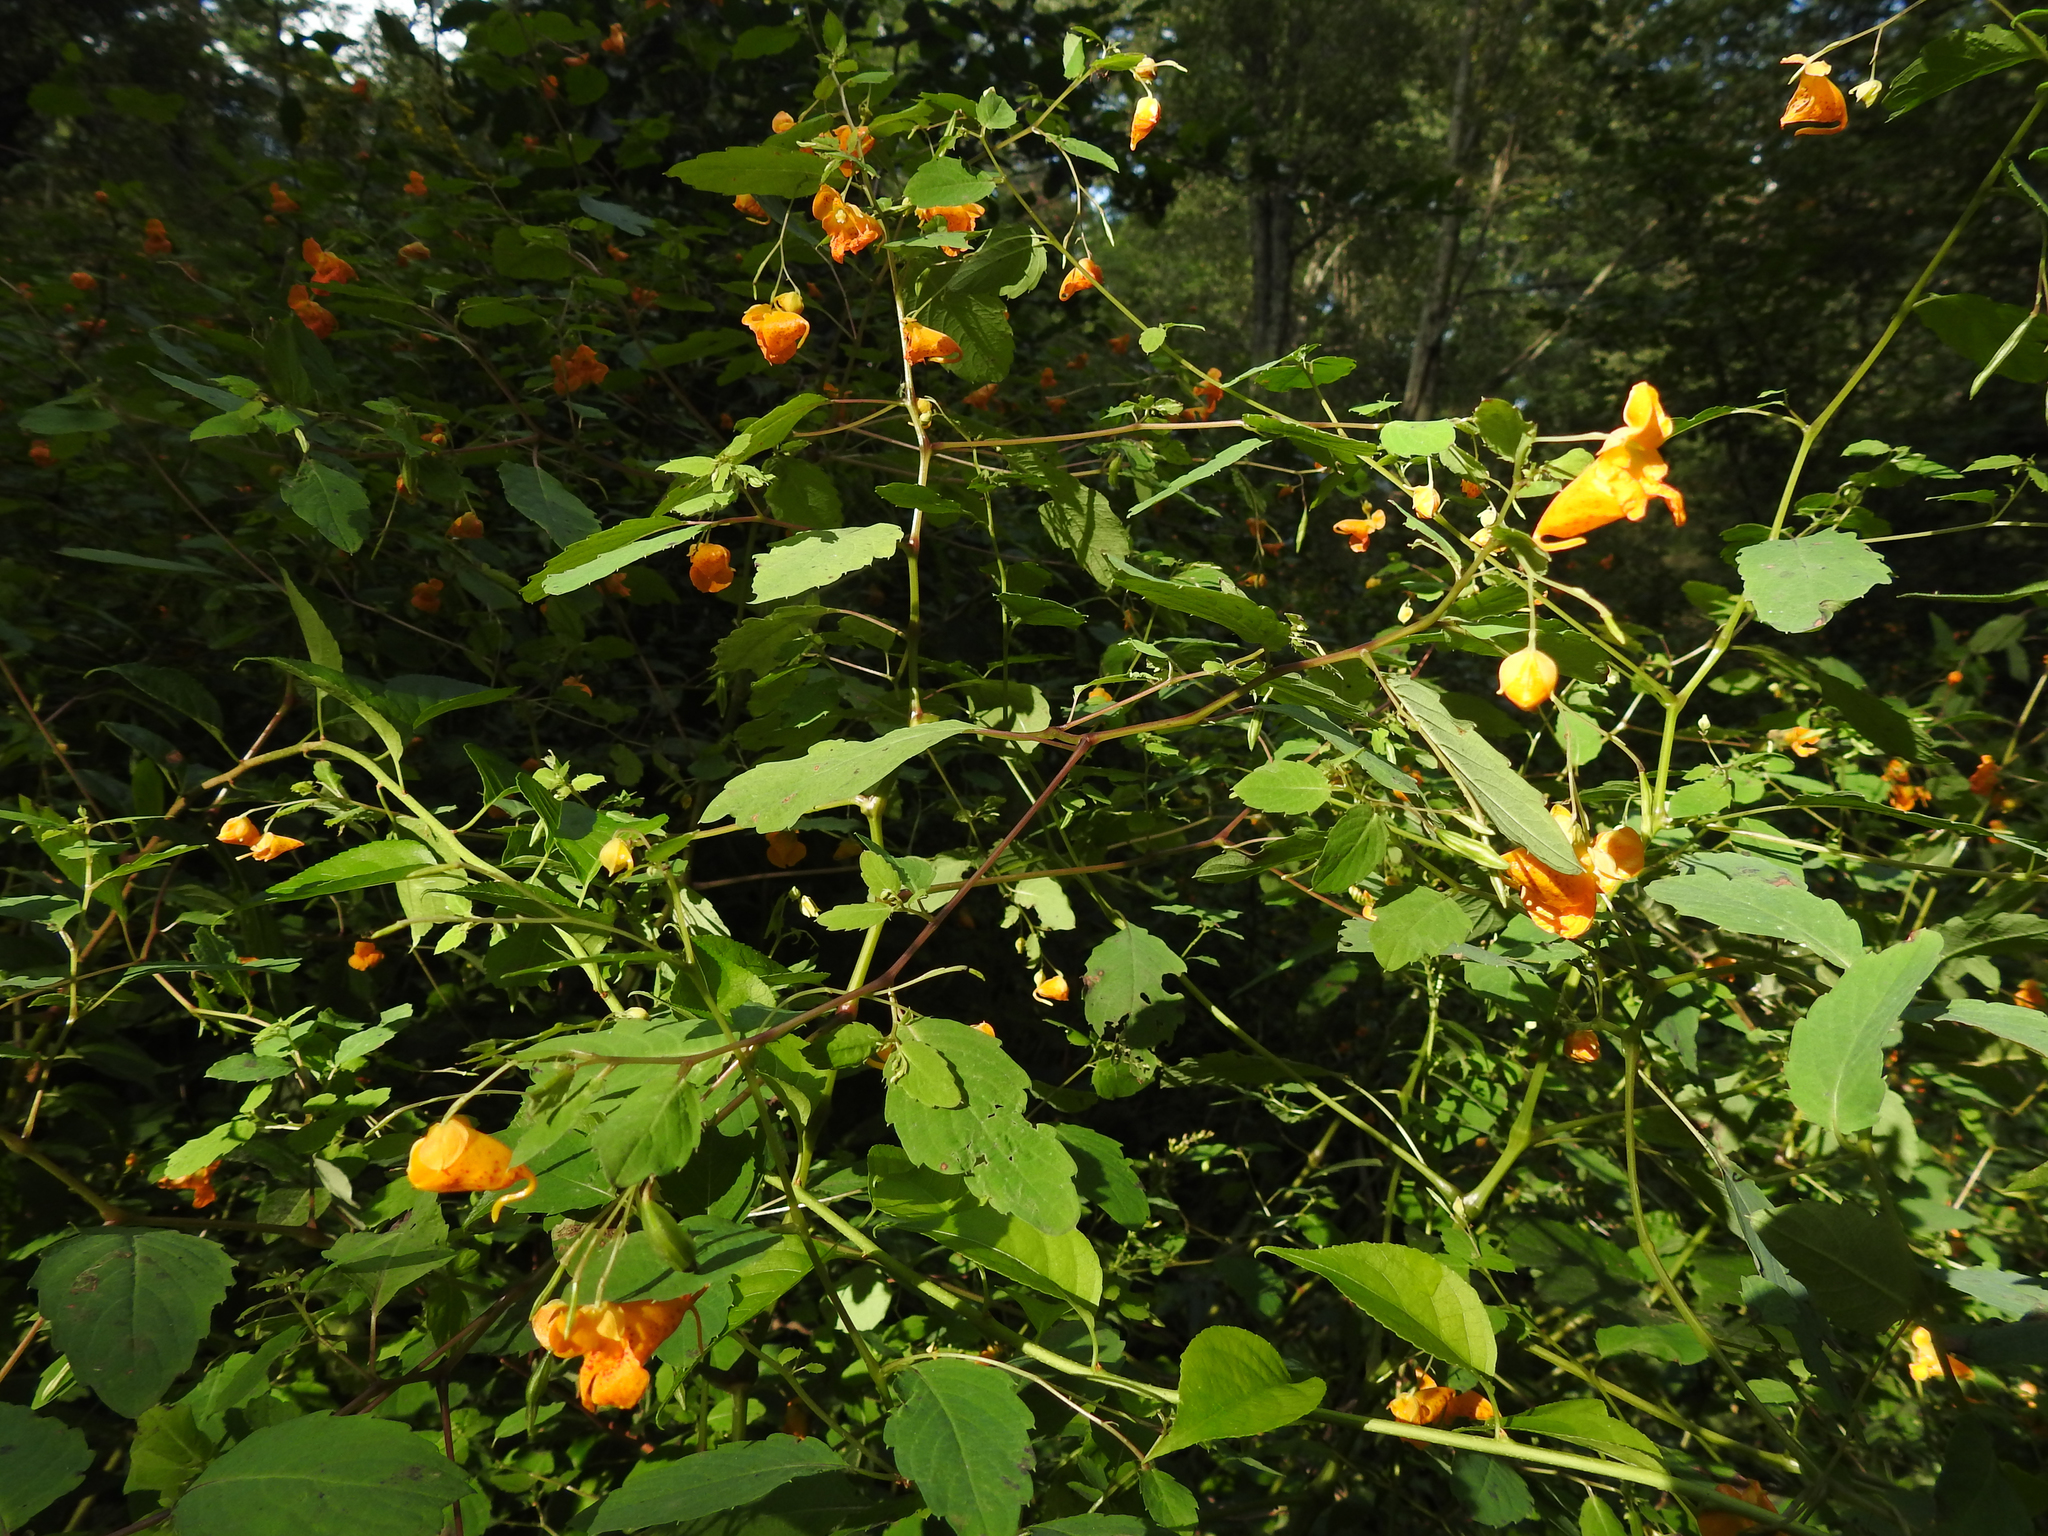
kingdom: Plantae
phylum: Tracheophyta
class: Magnoliopsida
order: Ericales
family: Balsaminaceae
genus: Impatiens
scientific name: Impatiens capensis
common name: Orange balsam
